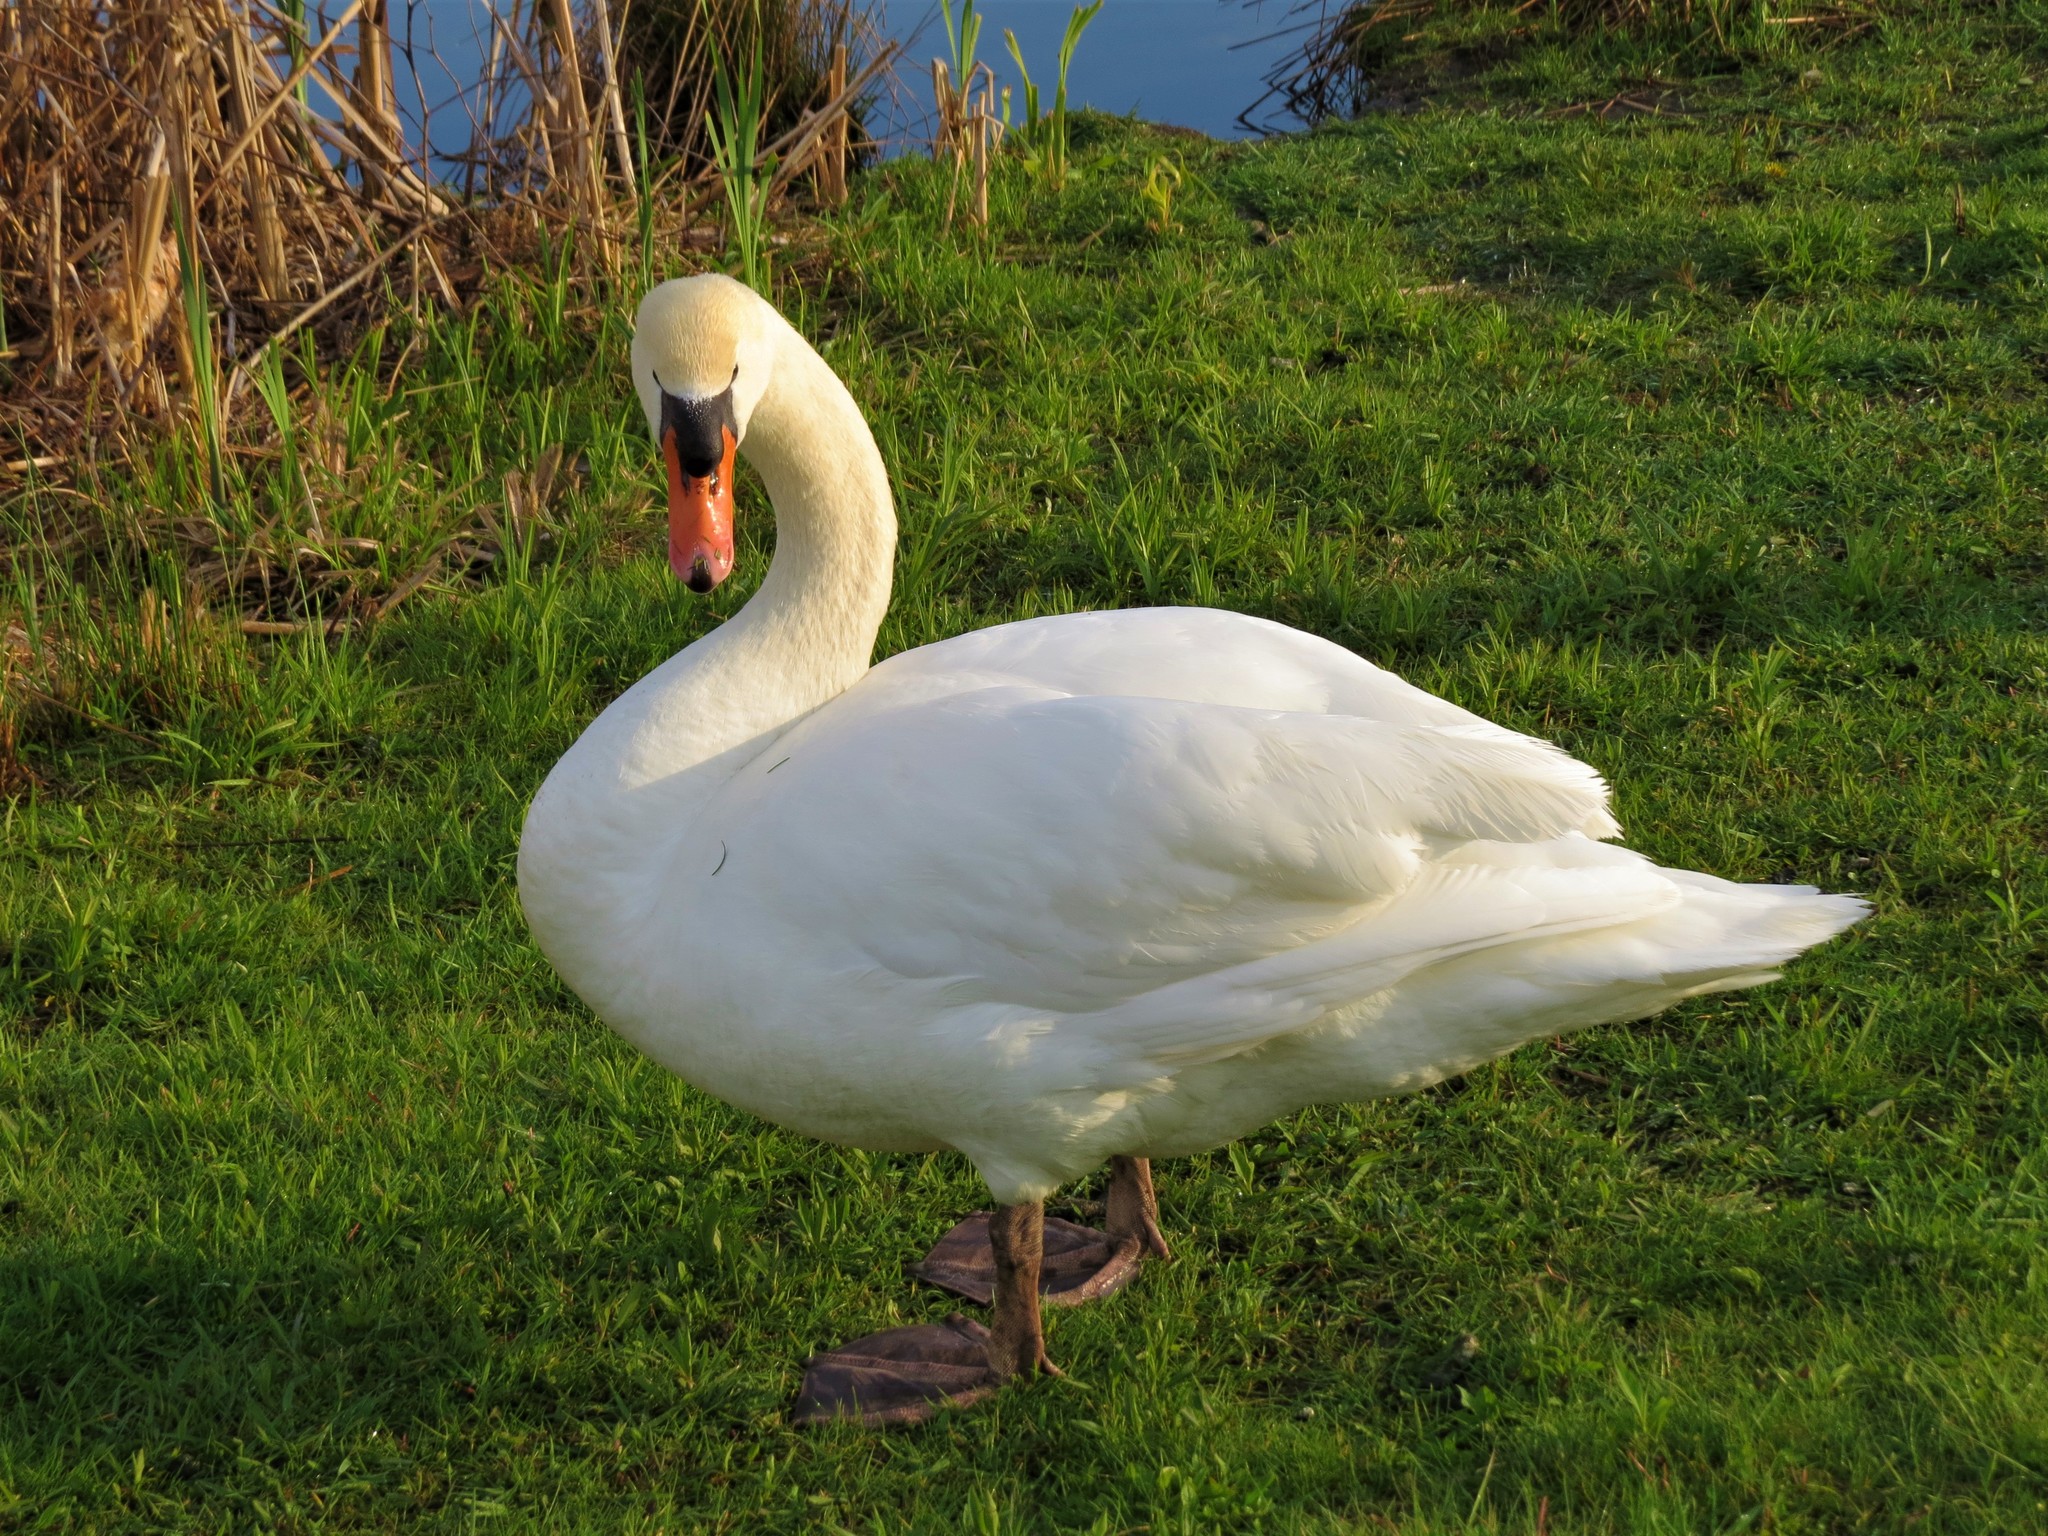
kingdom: Animalia
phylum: Chordata
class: Aves
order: Anseriformes
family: Anatidae
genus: Cygnus
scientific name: Cygnus olor
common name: Mute swan
